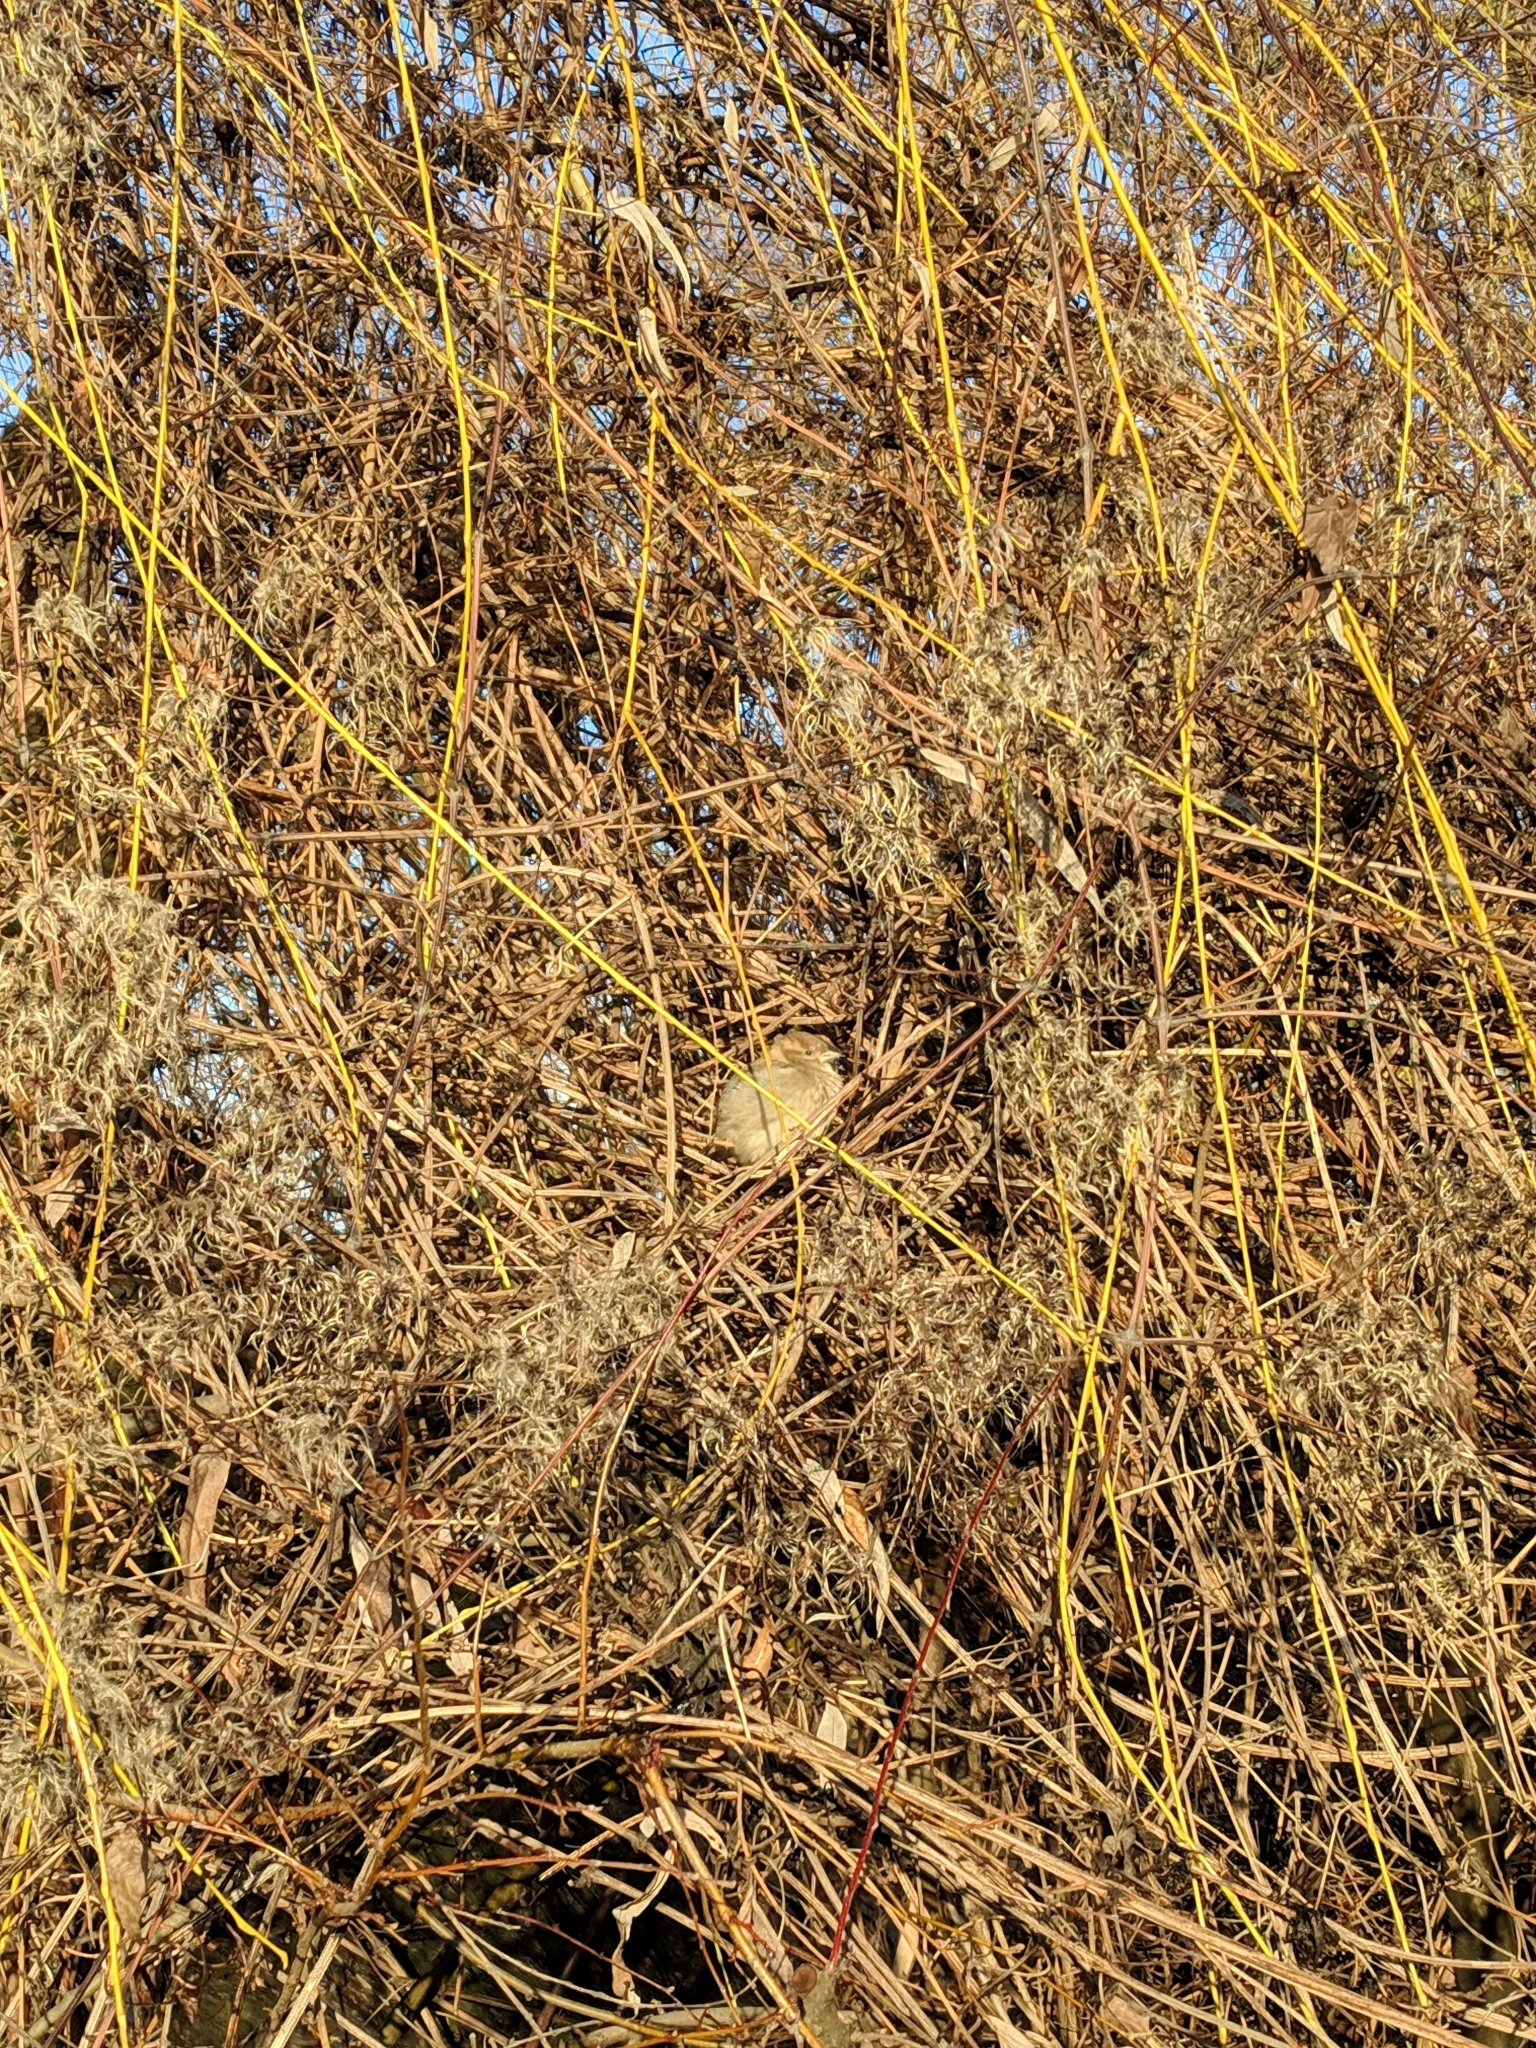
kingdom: Animalia
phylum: Chordata
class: Aves
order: Passeriformes
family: Passeridae
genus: Passer
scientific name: Passer domesticus
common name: House sparrow
